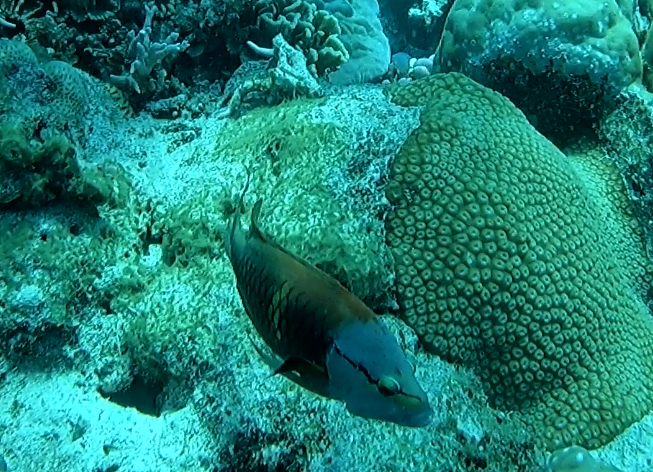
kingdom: Animalia
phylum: Chordata
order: Perciformes
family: Labridae
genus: Epibulus
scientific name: Epibulus insidiator
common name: Slingjaw wrasse
